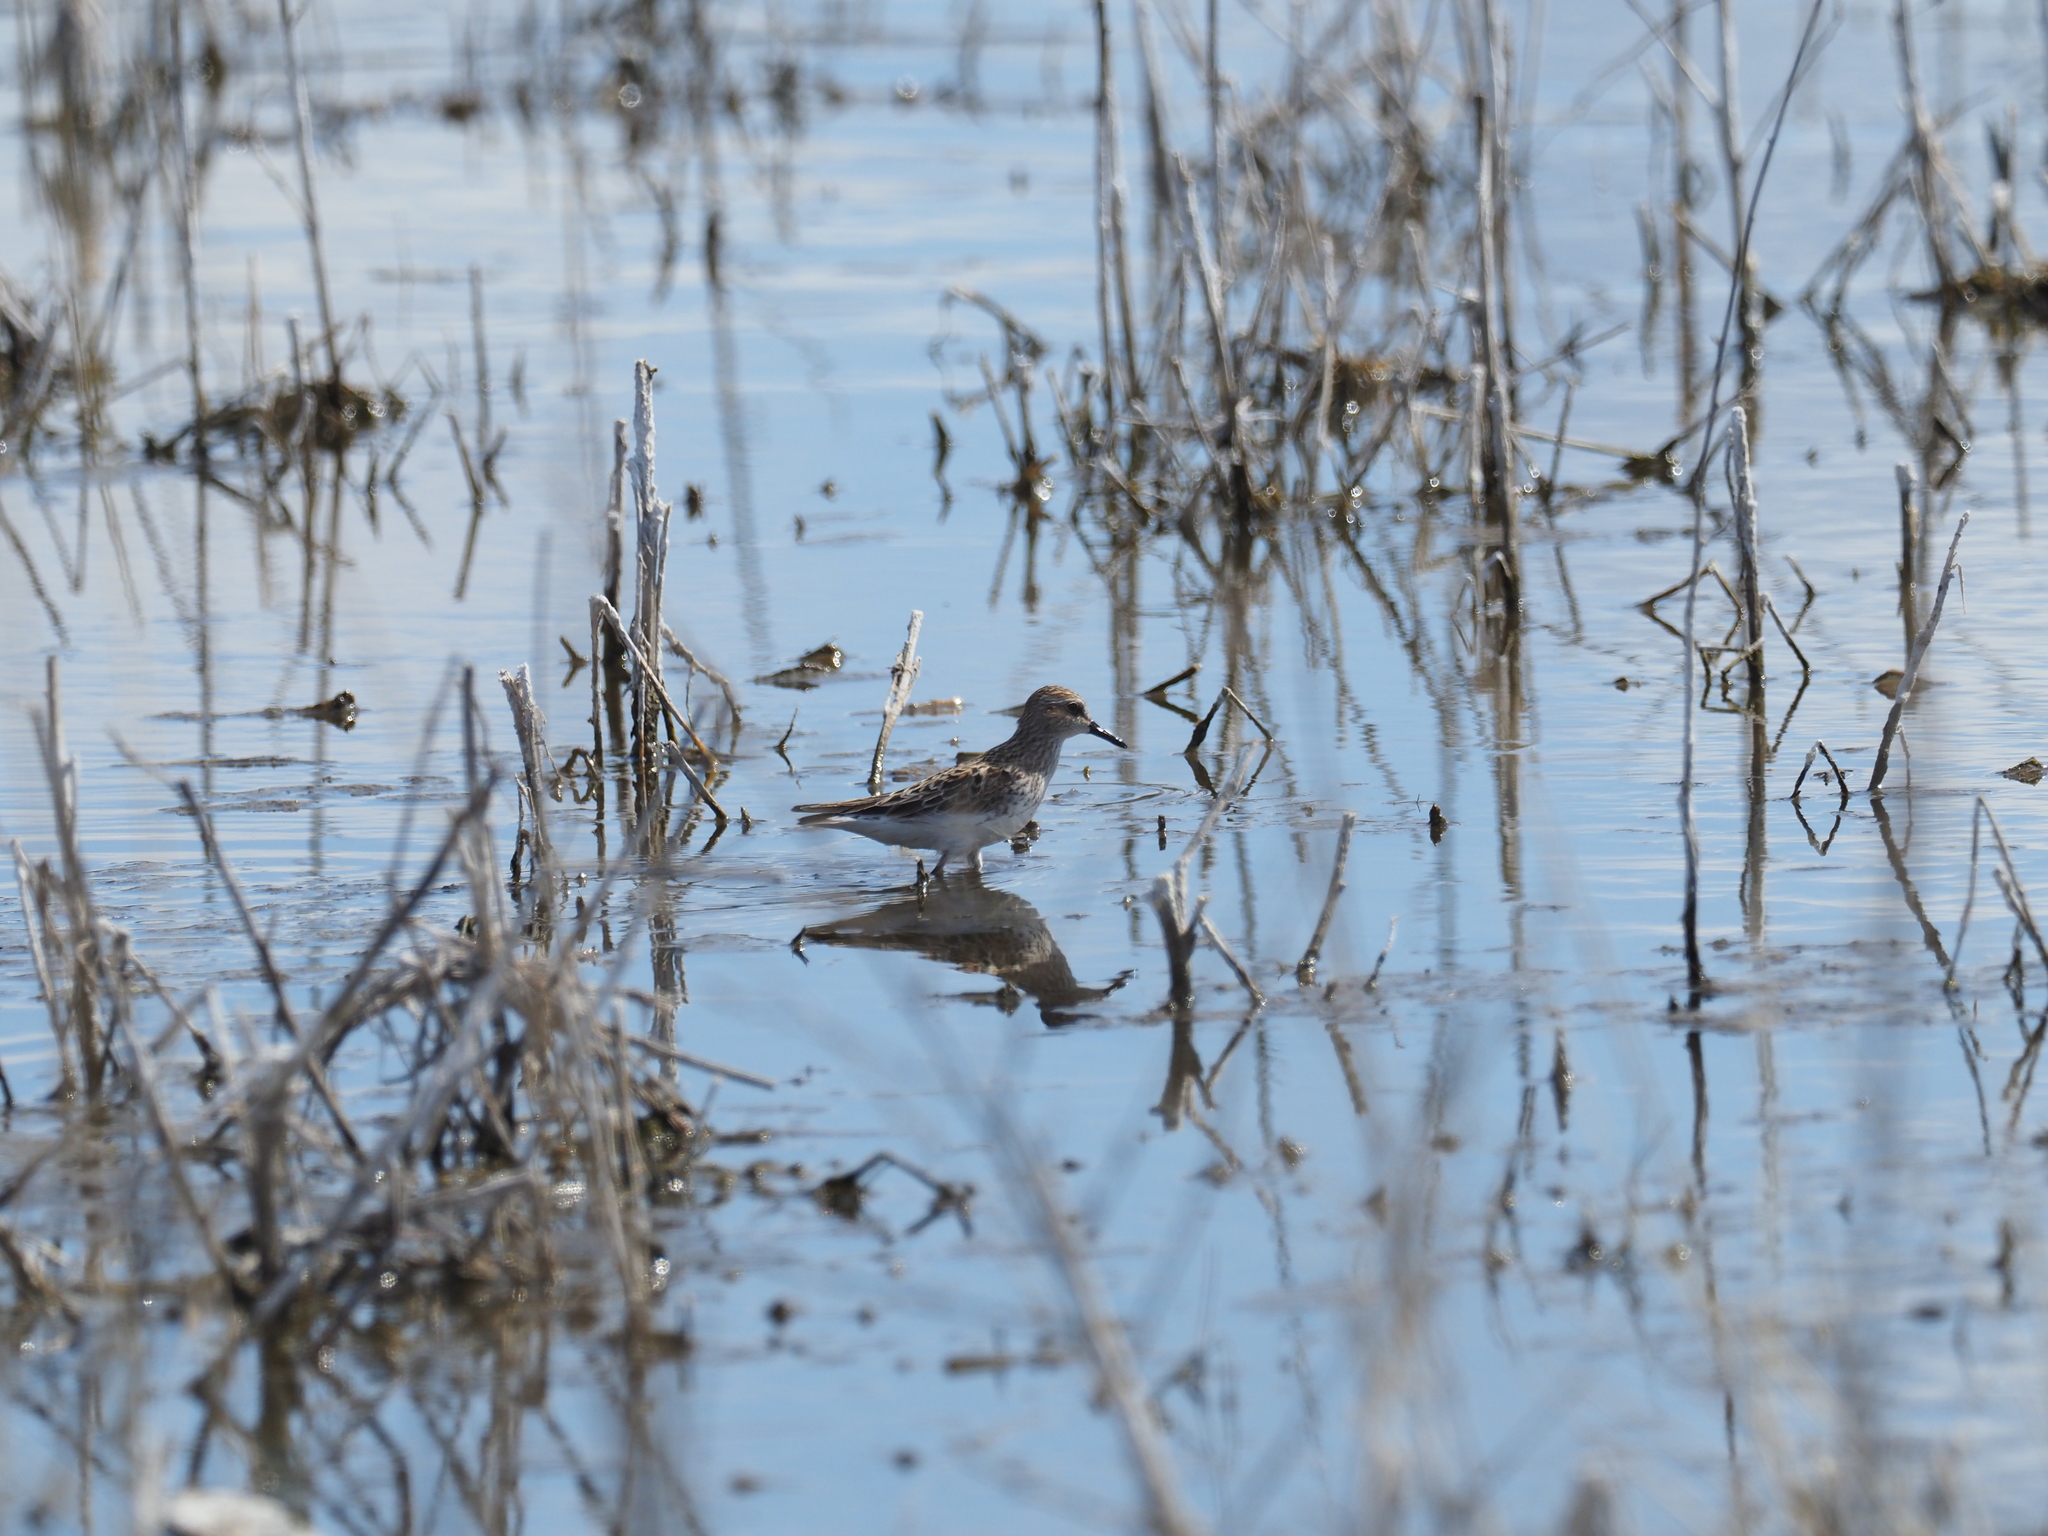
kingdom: Animalia
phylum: Chordata
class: Aves
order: Charadriiformes
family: Scolopacidae
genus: Calidris
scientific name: Calidris pusilla
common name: Semipalmated sandpiper
